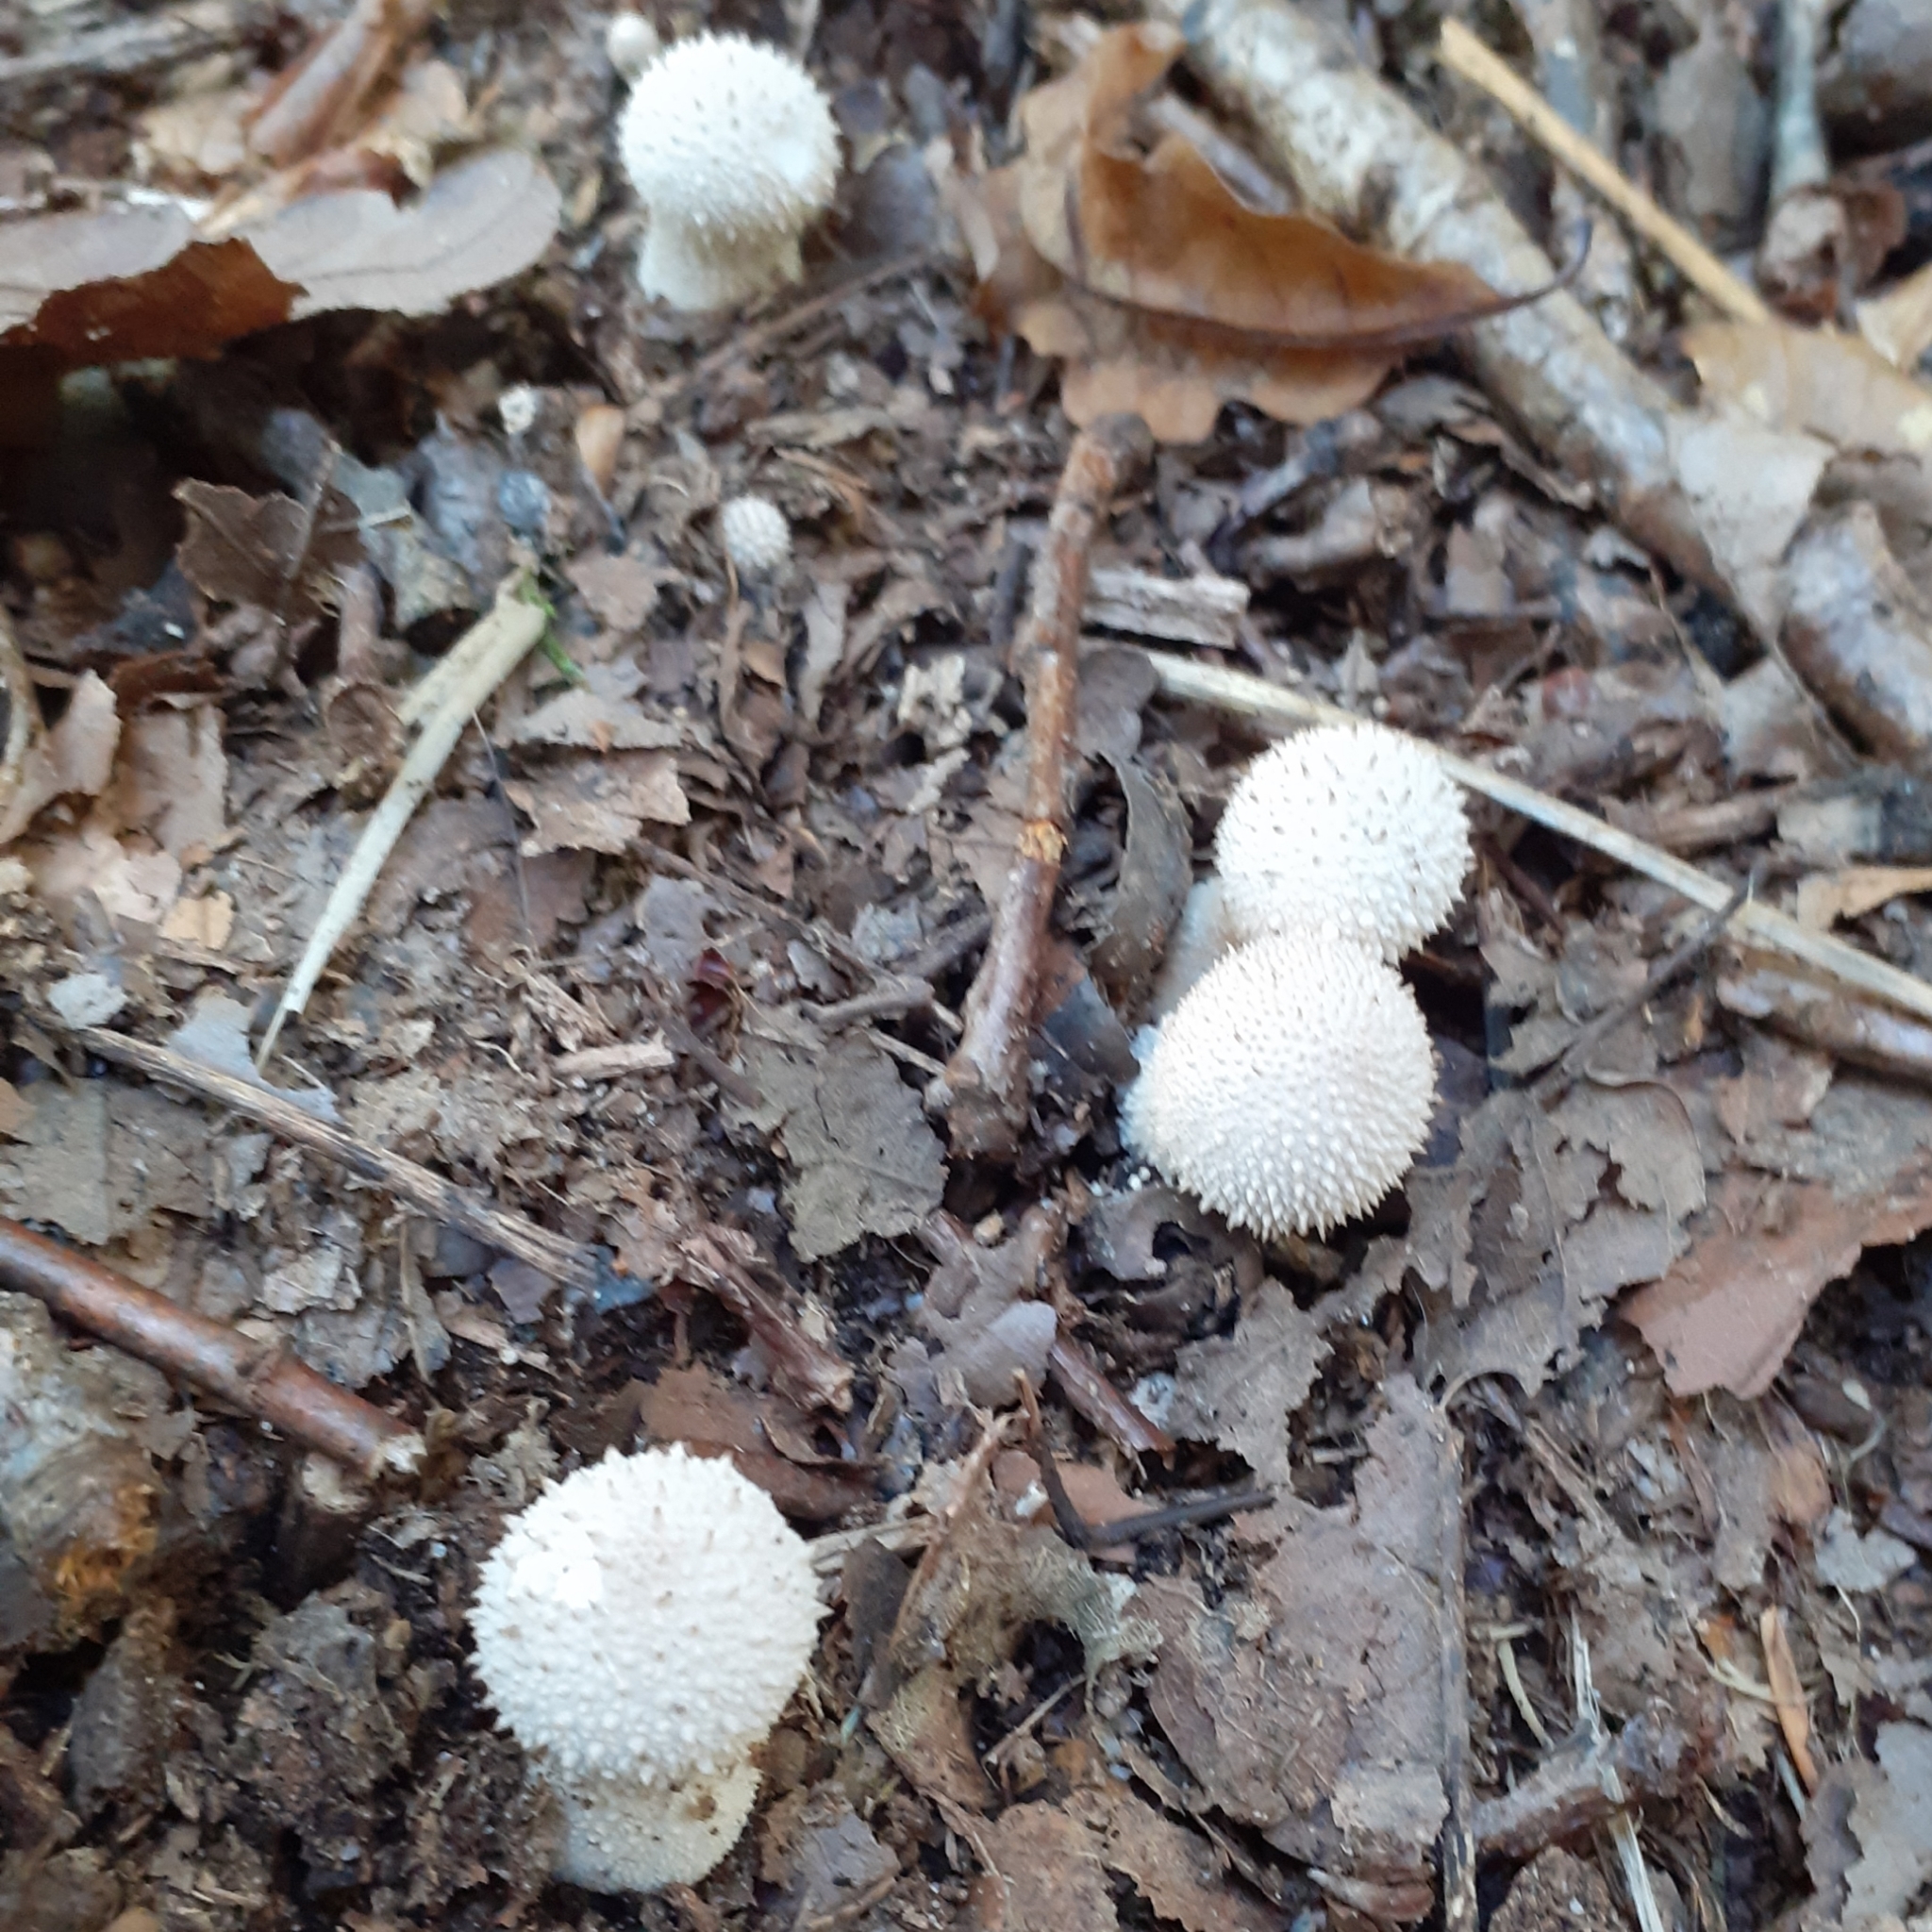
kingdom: Fungi
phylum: Basidiomycota
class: Agaricomycetes
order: Agaricales
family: Lycoperdaceae
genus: Lycoperdon
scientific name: Lycoperdon perlatum
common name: Common puffball
